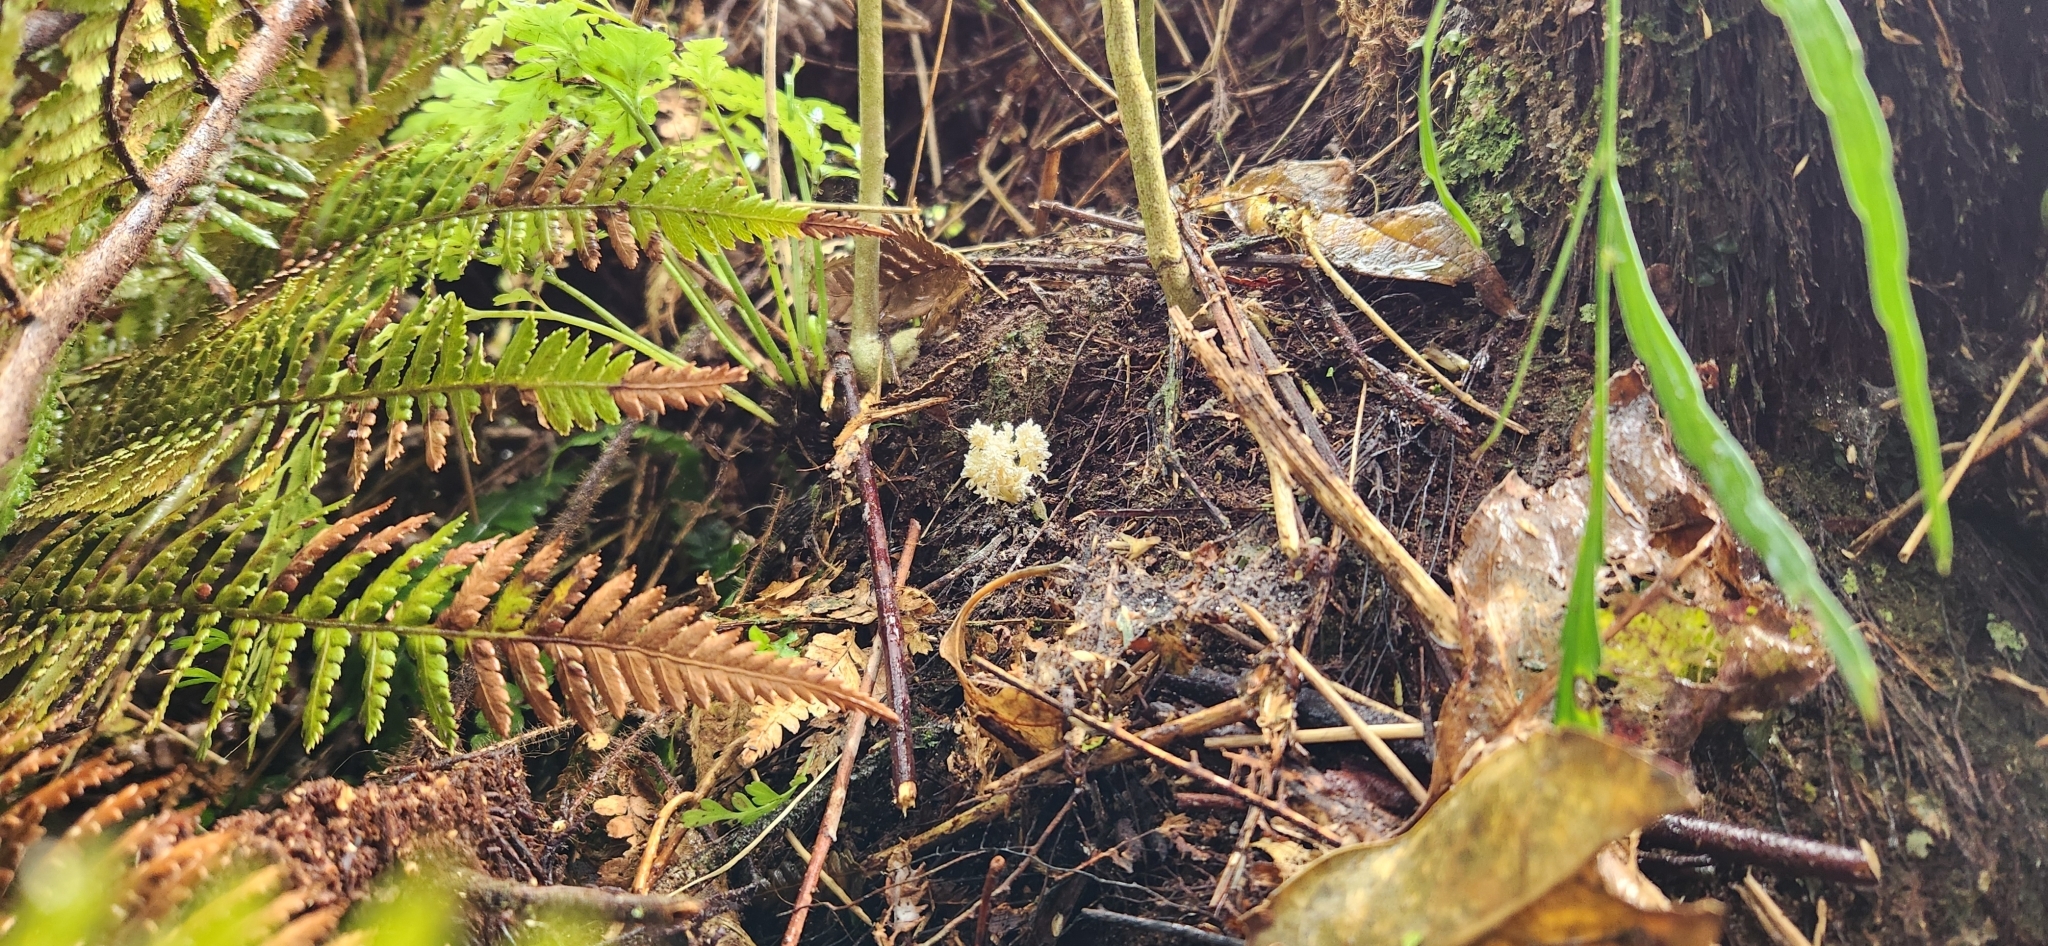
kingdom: Fungi
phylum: Ascomycota
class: Sordariomycetes
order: Hypocreales
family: Cordycipitaceae
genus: Cordyceps
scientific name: Cordyceps tenuipes
